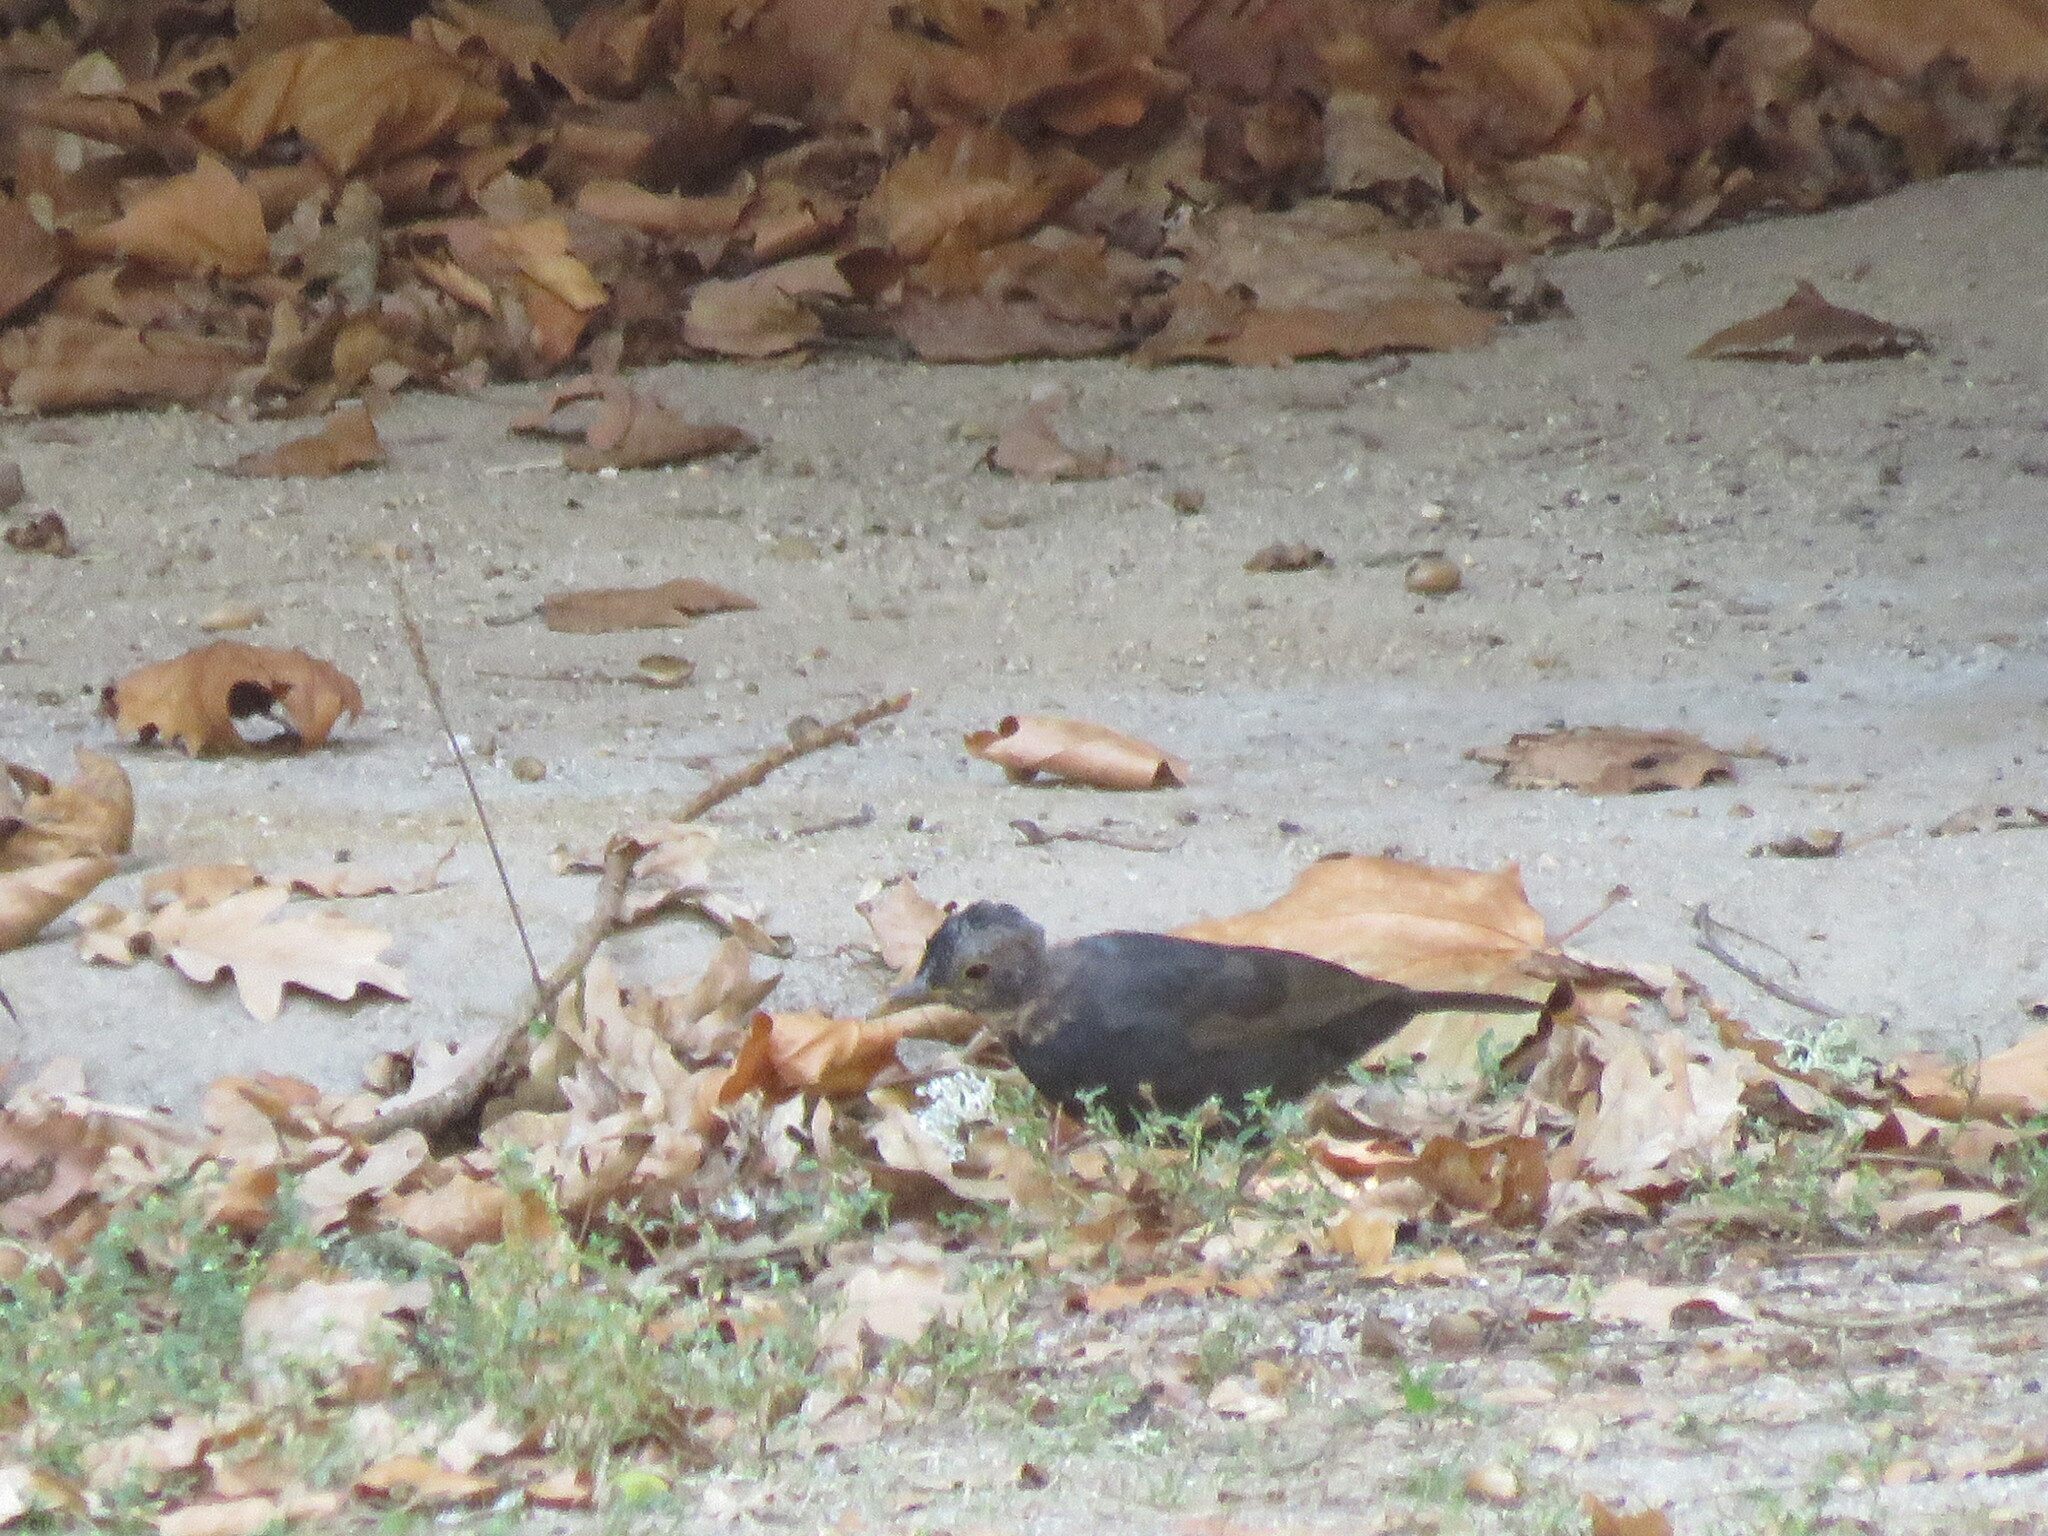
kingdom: Animalia
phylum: Chordata
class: Aves
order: Passeriformes
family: Turdidae
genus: Turdus
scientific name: Turdus merula
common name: Common blackbird
